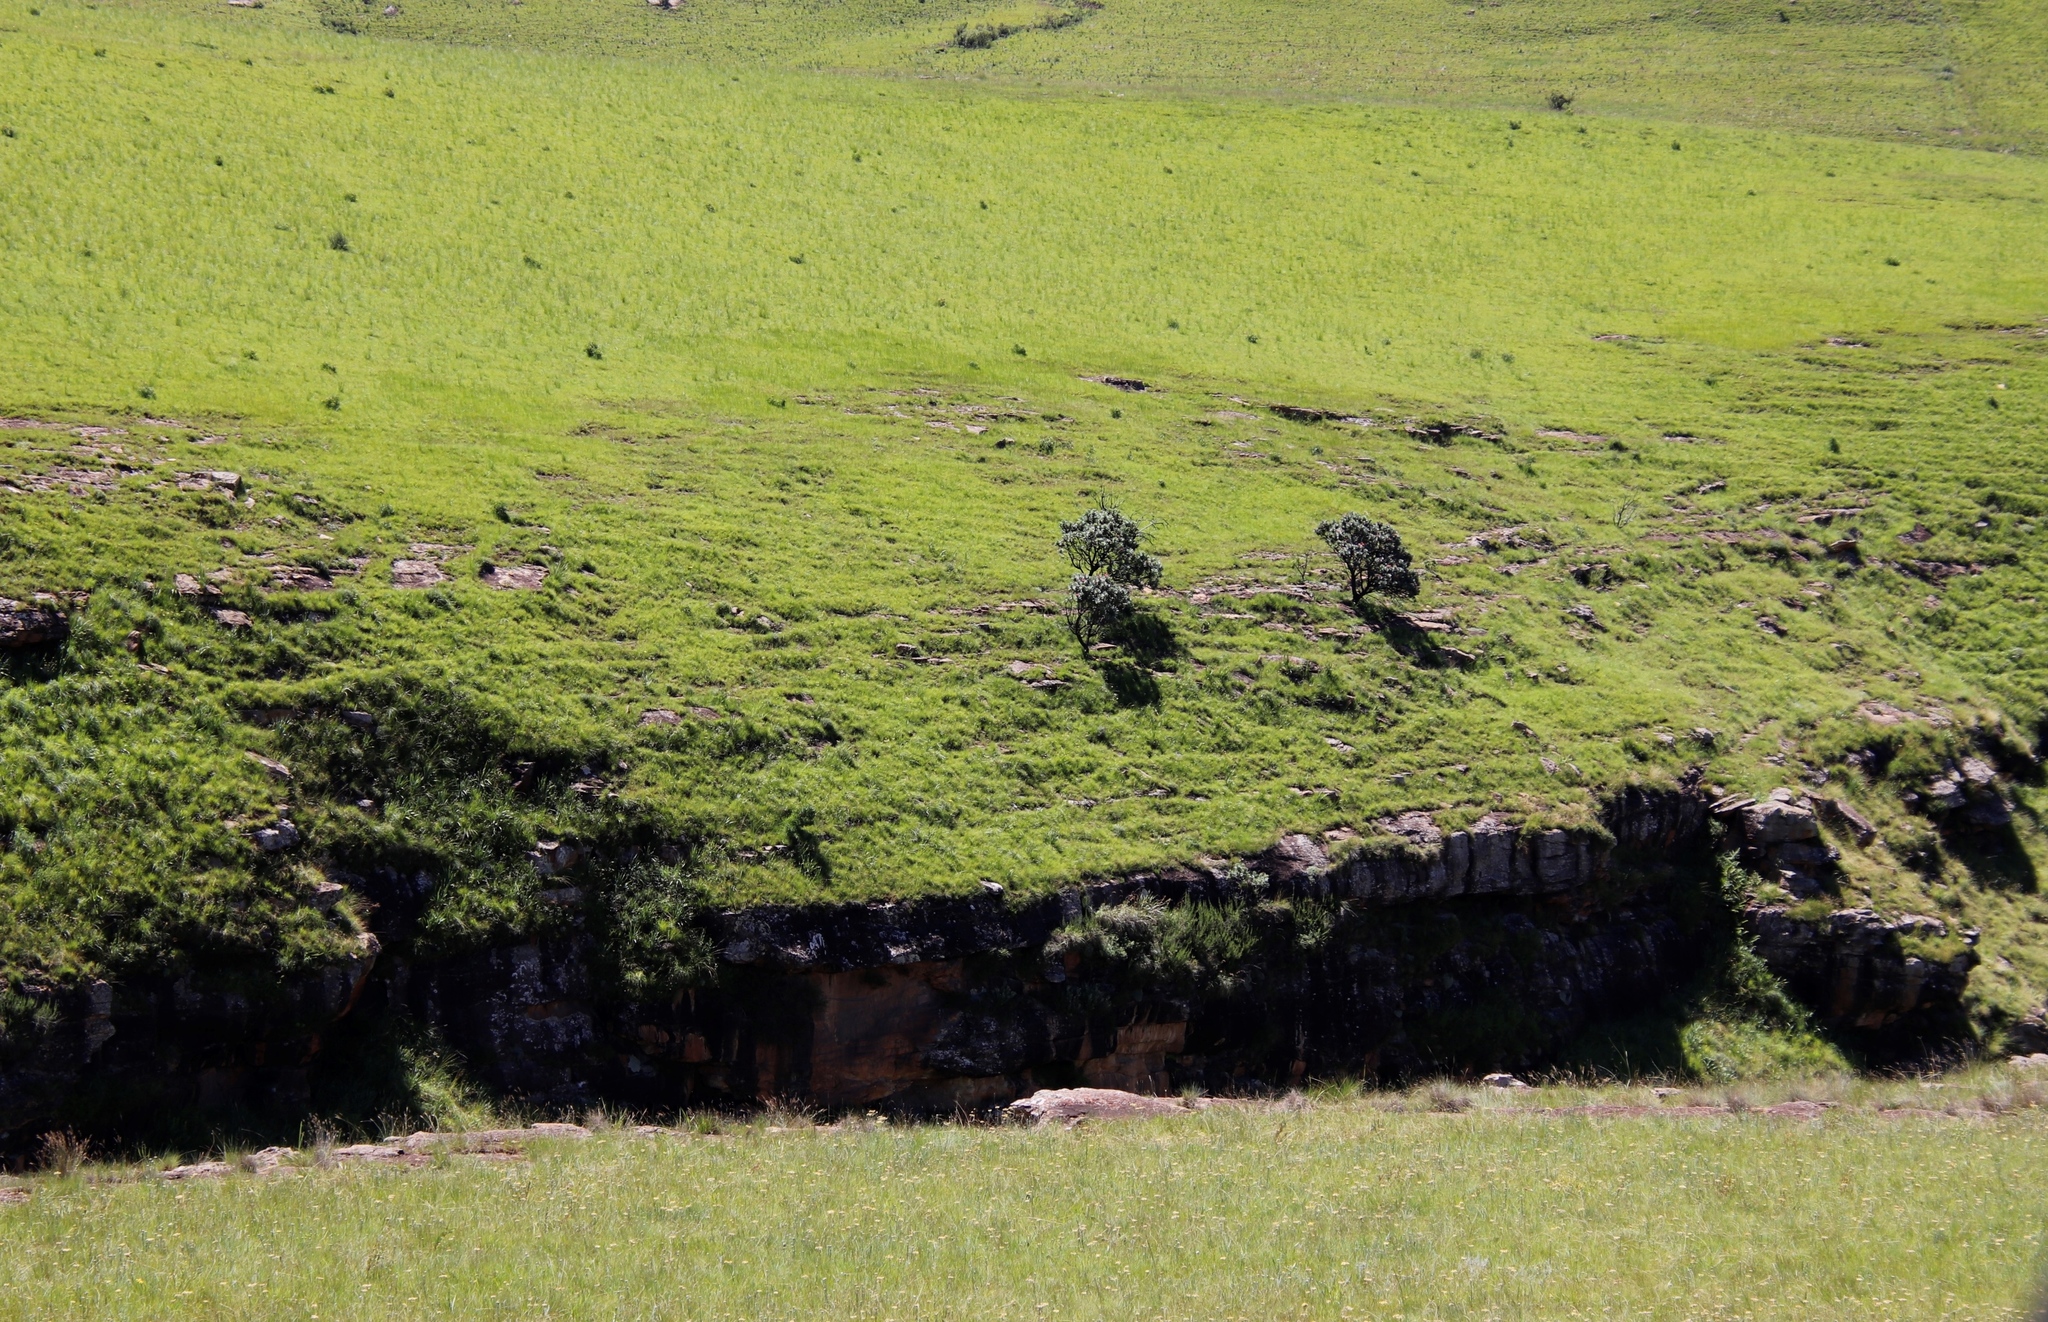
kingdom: Plantae
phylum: Tracheophyta
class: Magnoliopsida
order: Proteales
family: Proteaceae
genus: Protea
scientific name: Protea roupelliae
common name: Silver sugarbush
